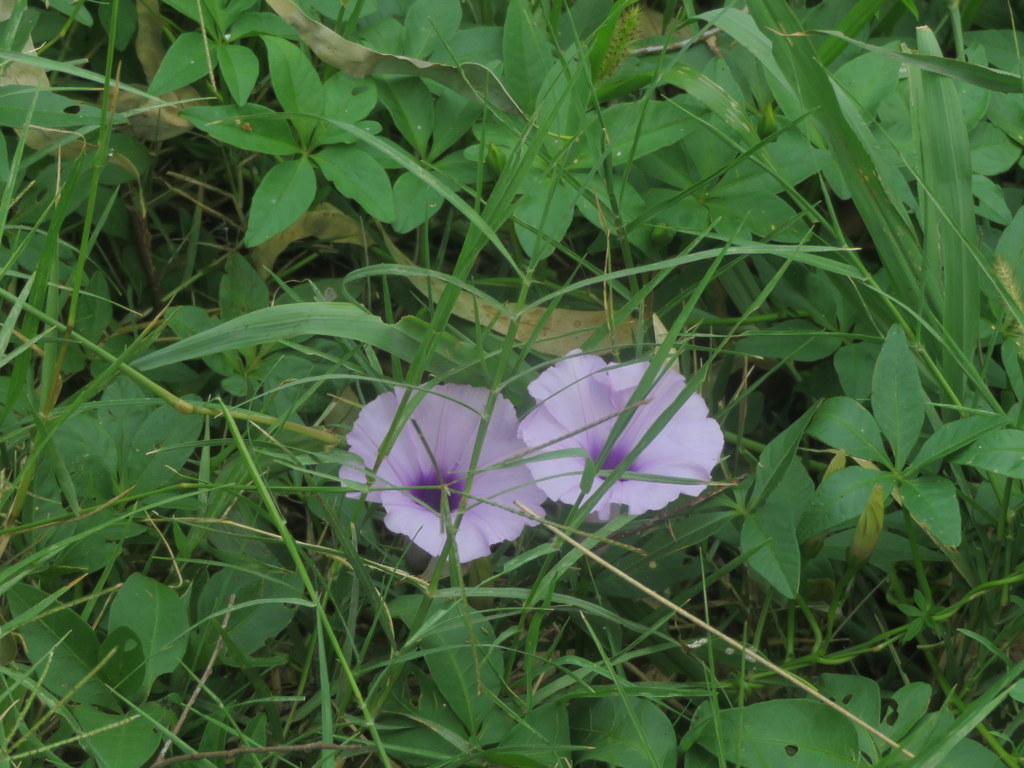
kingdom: Plantae
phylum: Tracheophyta
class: Magnoliopsida
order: Solanales
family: Convolvulaceae
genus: Ipomoea
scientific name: Ipomoea cairica
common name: Mile a minute vine
